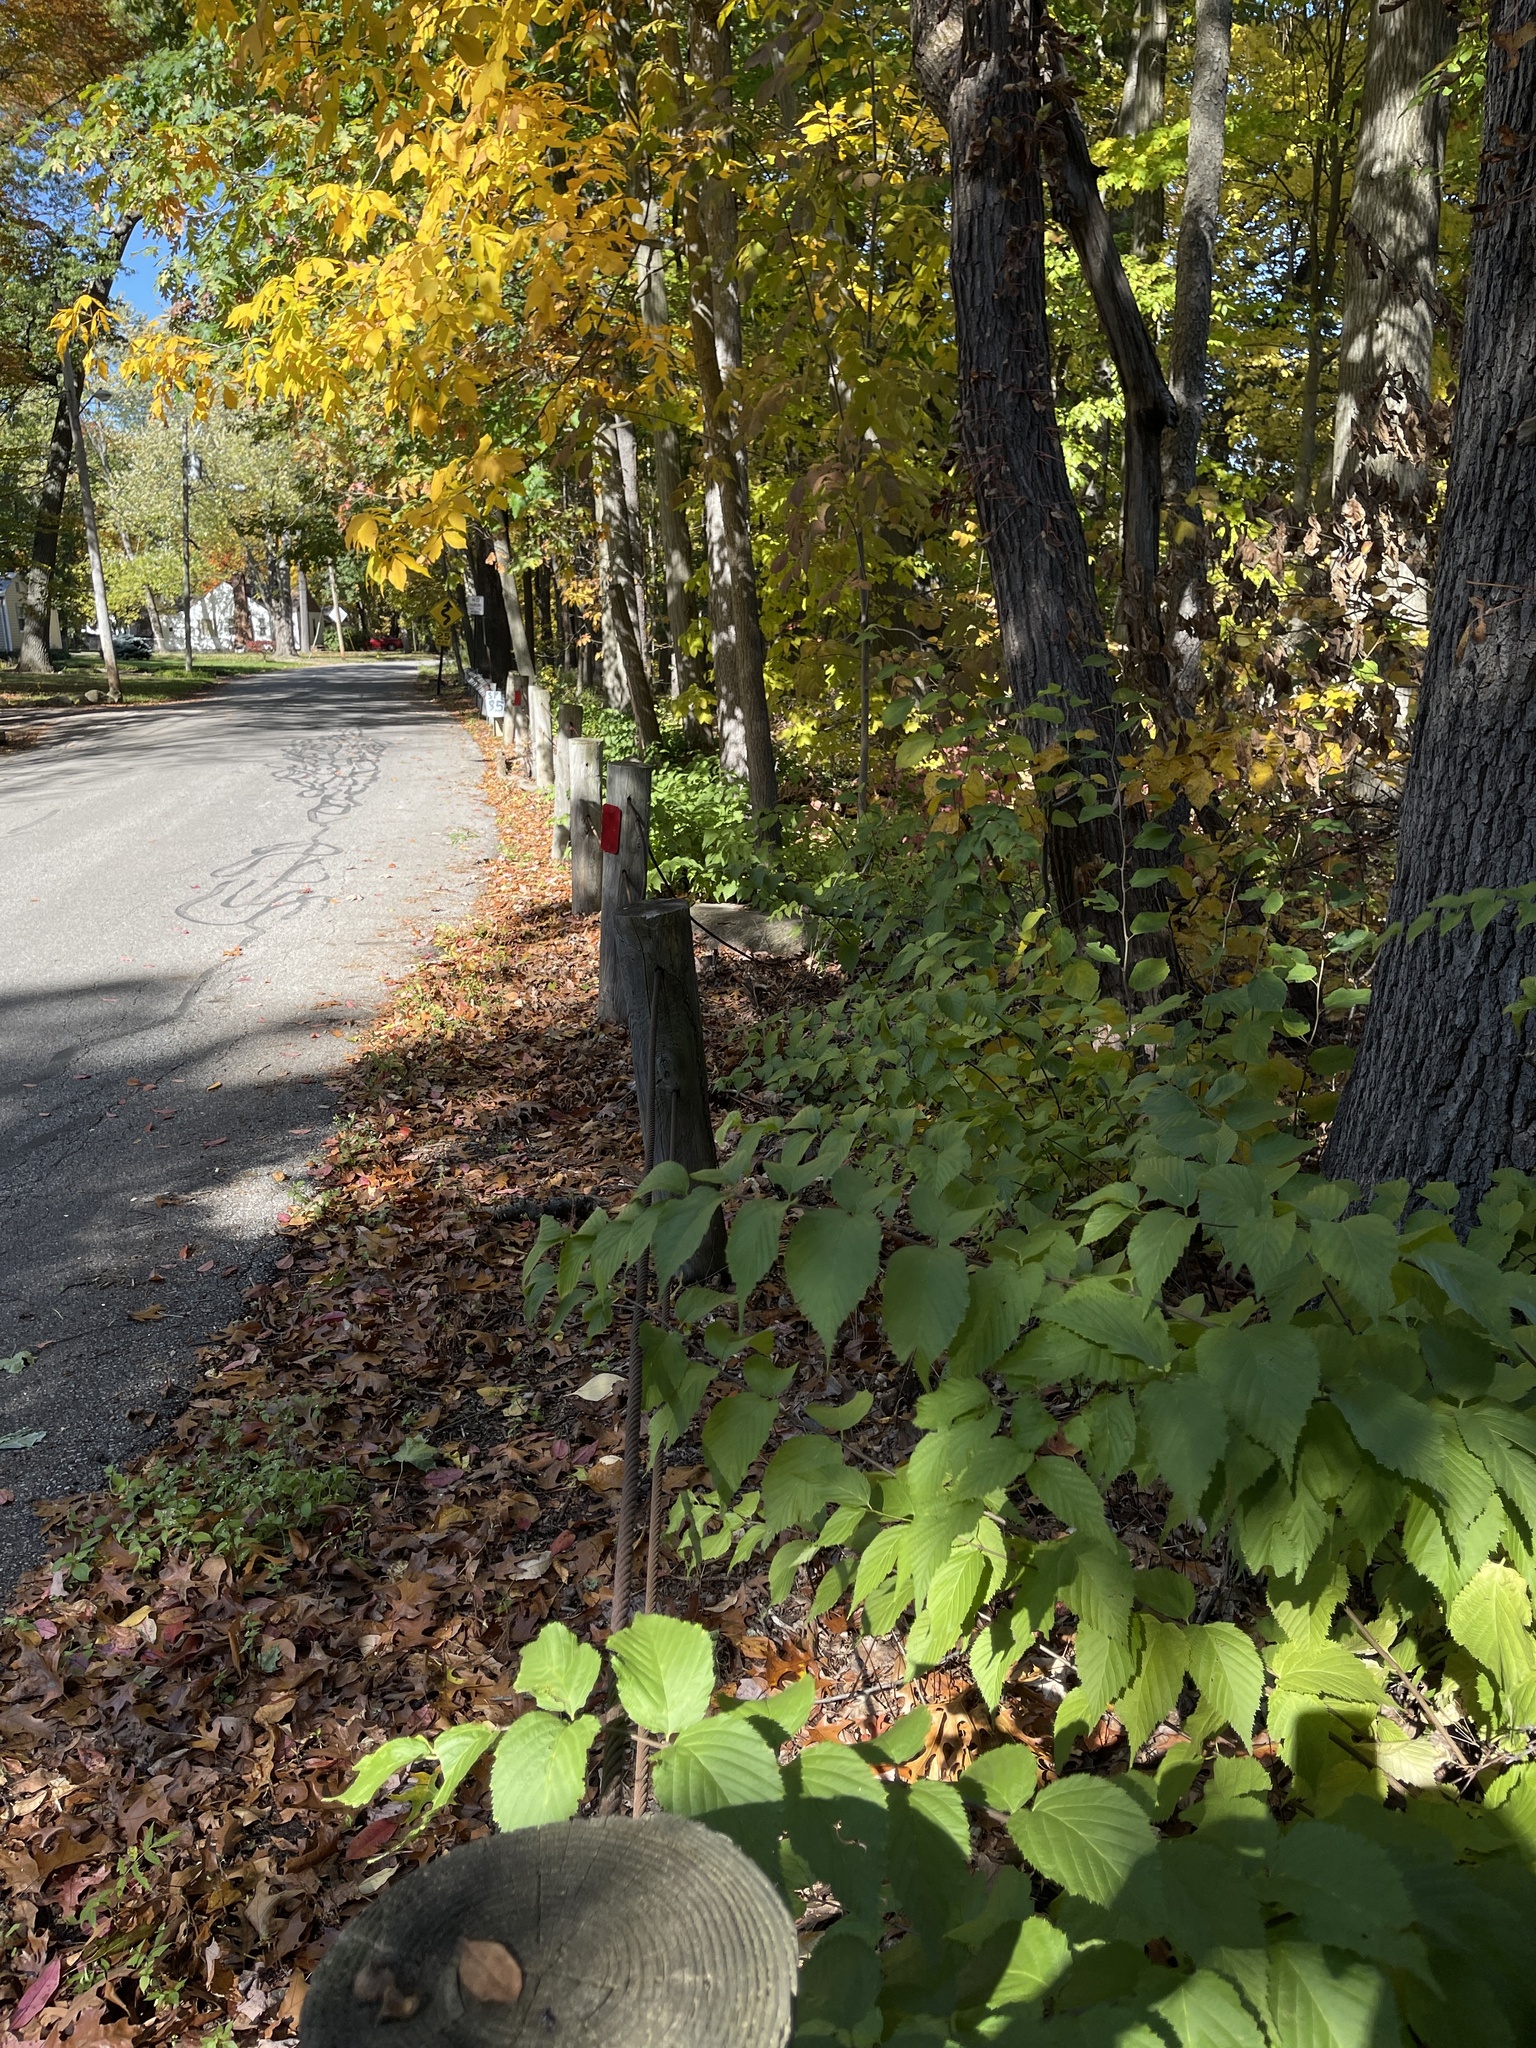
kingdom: Plantae
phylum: Tracheophyta
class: Magnoliopsida
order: Rosales
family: Rosaceae
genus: Rhodotypos
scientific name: Rhodotypos scandens
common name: Jetbead
